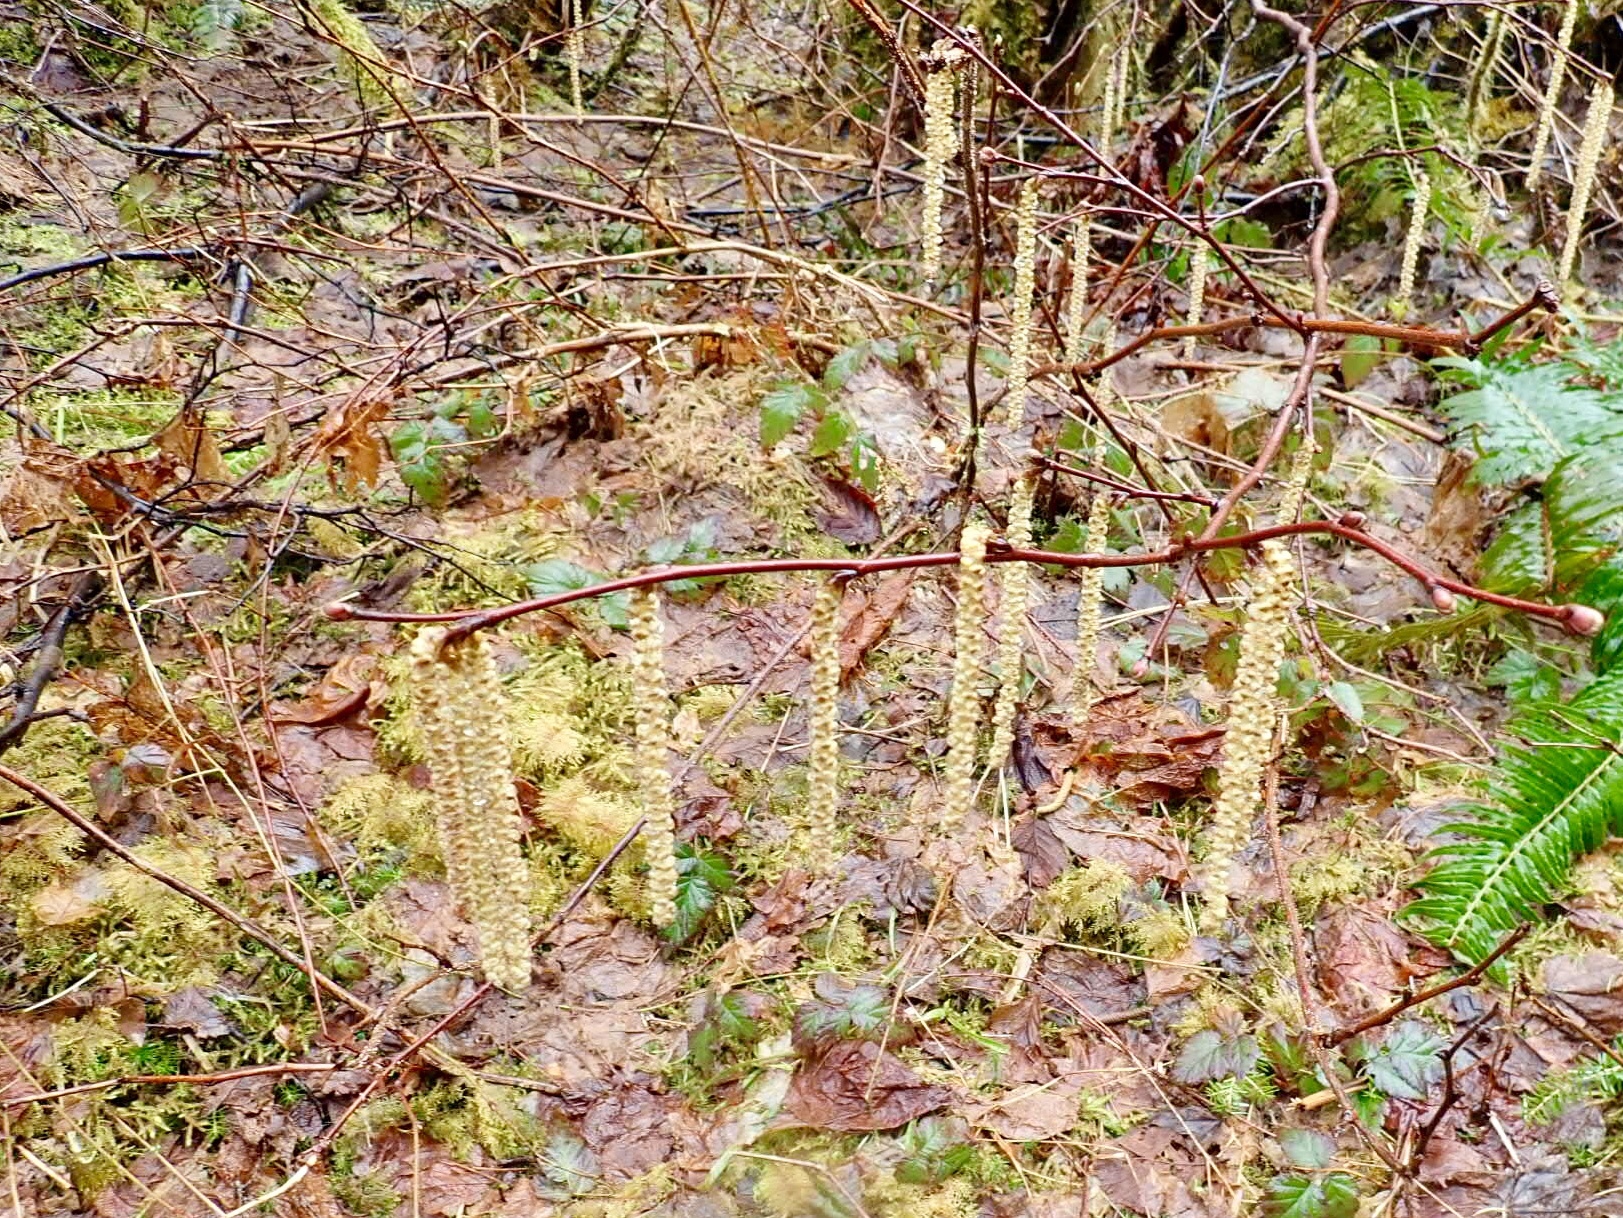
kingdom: Plantae
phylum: Tracheophyta
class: Magnoliopsida
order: Fagales
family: Betulaceae
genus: Corylus
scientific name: Corylus cornuta
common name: Beaked hazel
